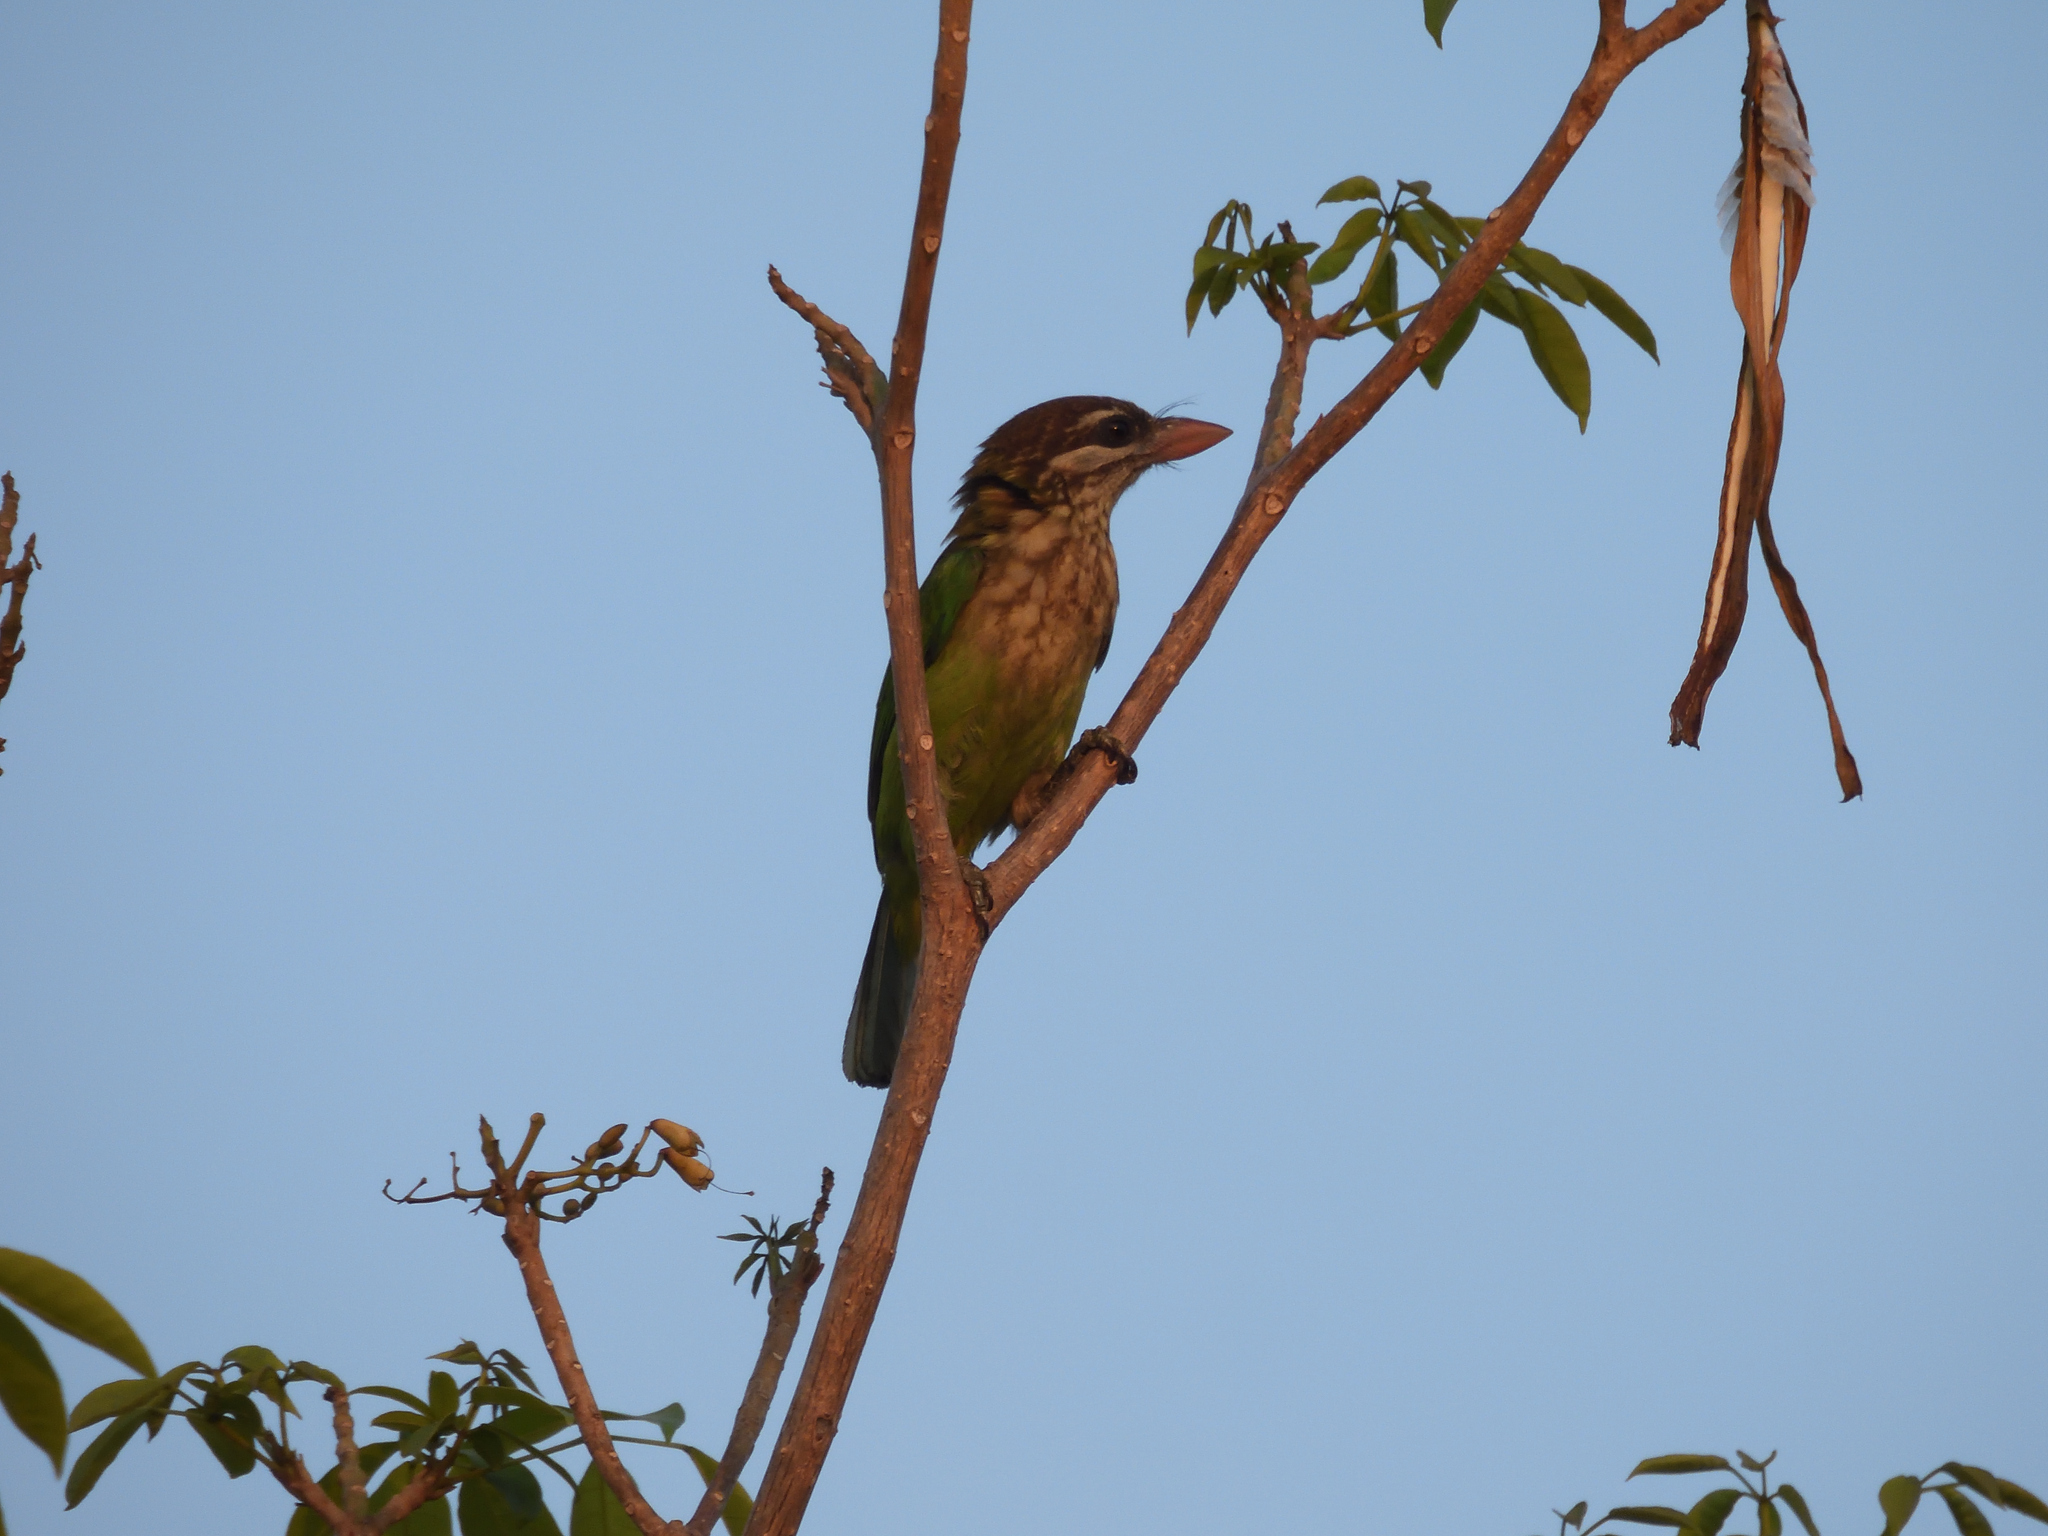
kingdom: Animalia
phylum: Chordata
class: Aves
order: Piciformes
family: Megalaimidae
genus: Psilopogon
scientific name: Psilopogon viridis
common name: White-cheeked barbet
